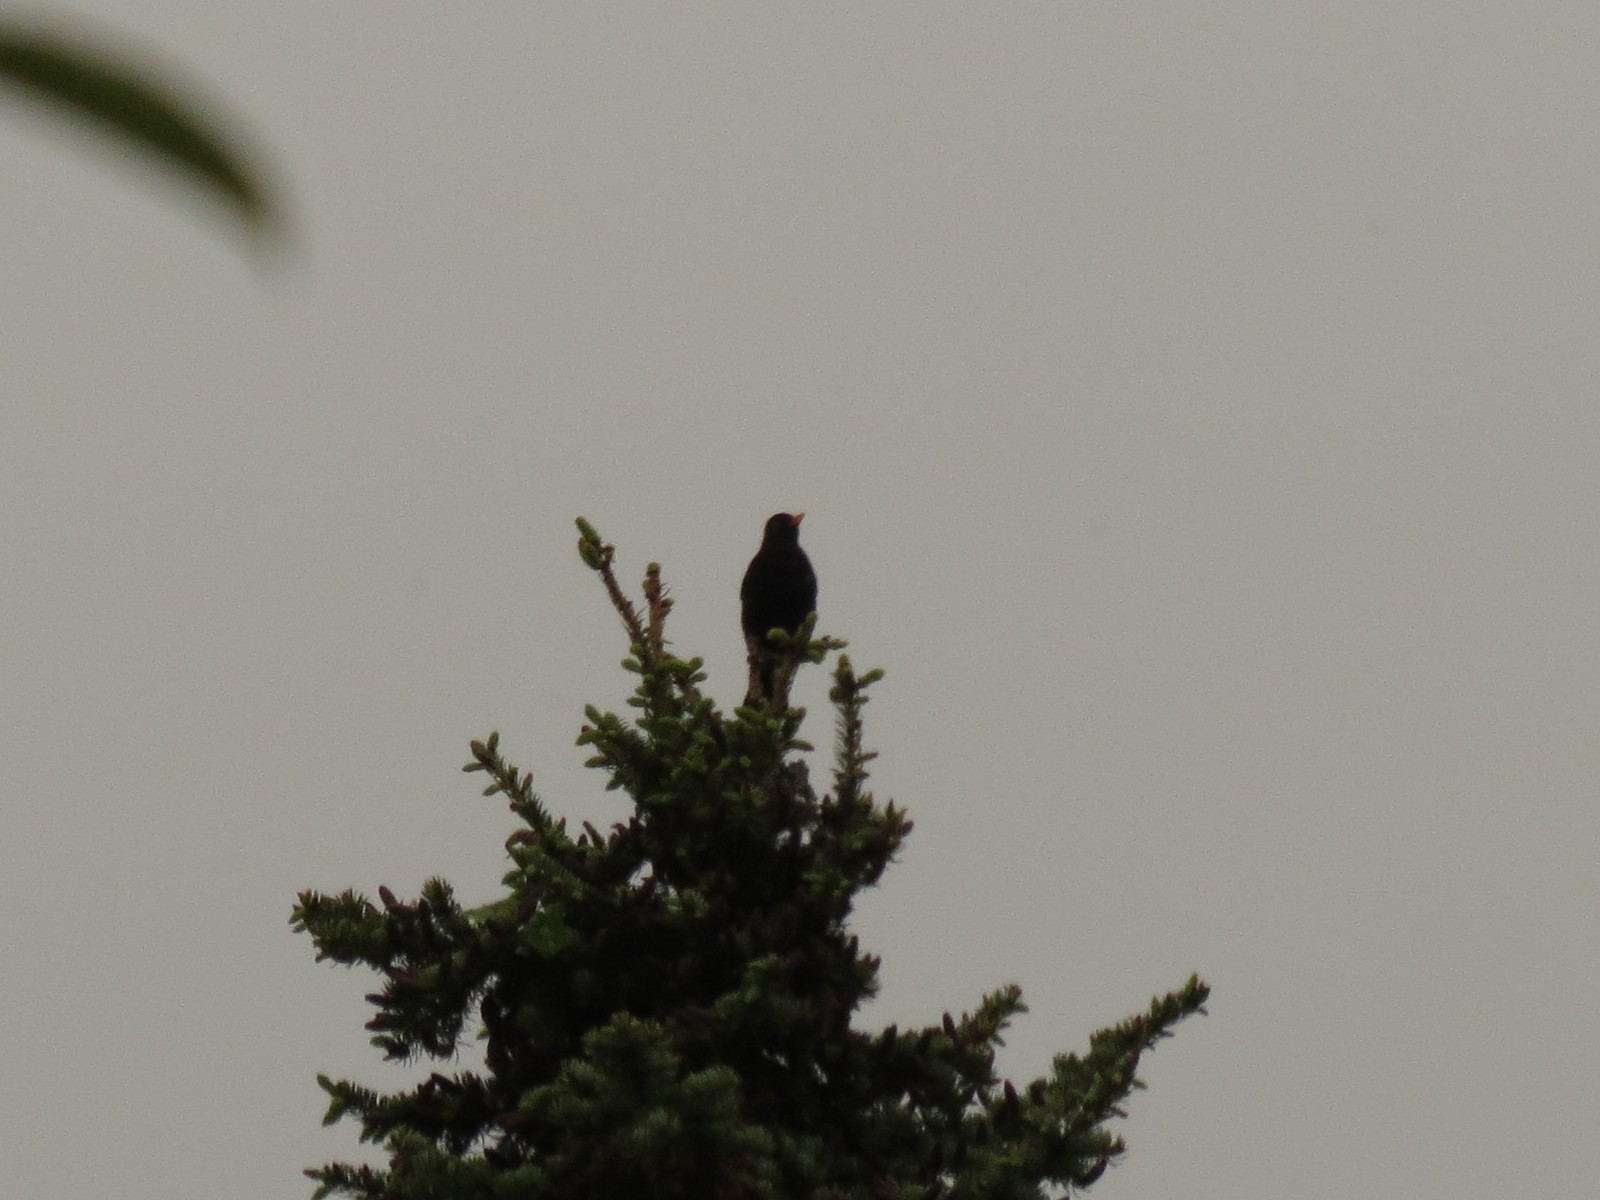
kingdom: Animalia
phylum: Chordata
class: Aves
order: Passeriformes
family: Turdidae
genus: Turdus
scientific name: Turdus merula
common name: Common blackbird
